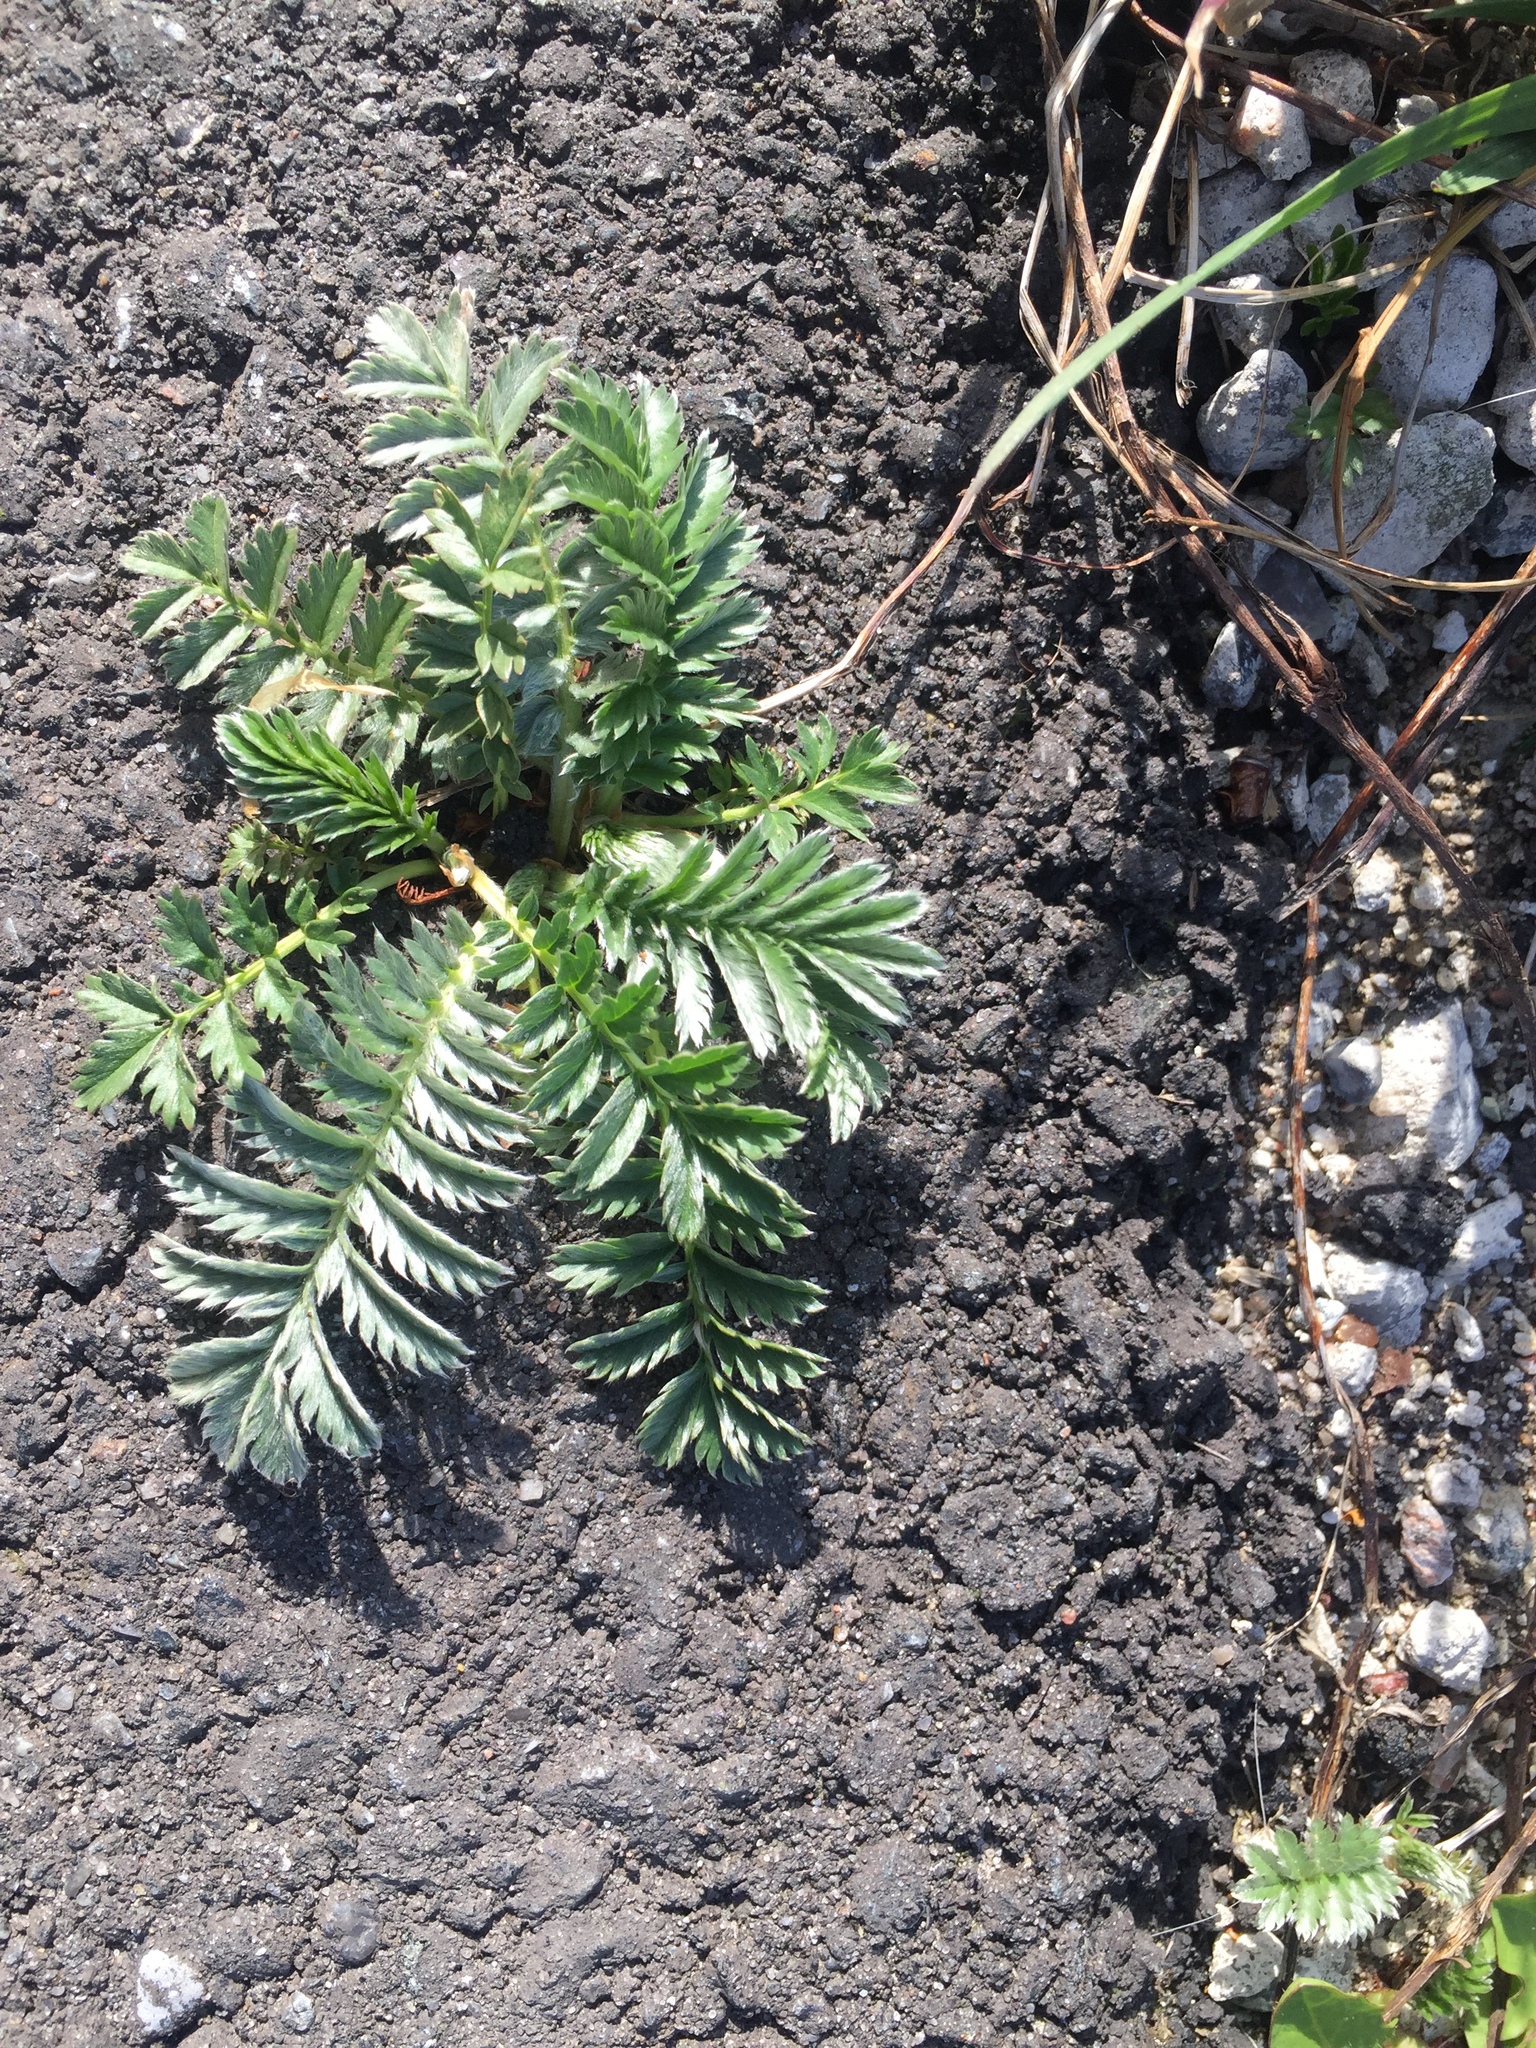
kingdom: Plantae
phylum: Tracheophyta
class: Magnoliopsida
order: Rosales
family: Rosaceae
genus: Argentina
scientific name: Argentina anserina
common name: Common silverweed
